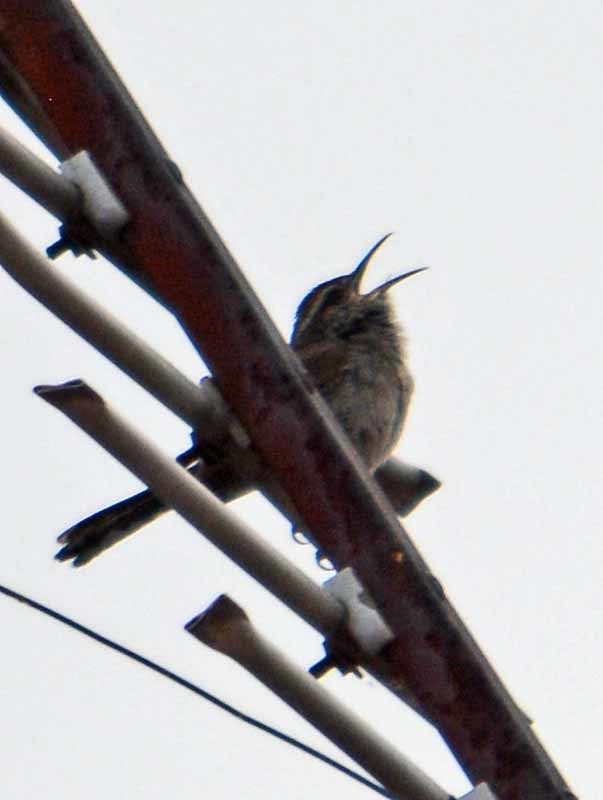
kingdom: Animalia
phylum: Chordata
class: Aves
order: Passeriformes
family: Troglodytidae
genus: Thryomanes
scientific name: Thryomanes bewickii
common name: Bewick's wren
